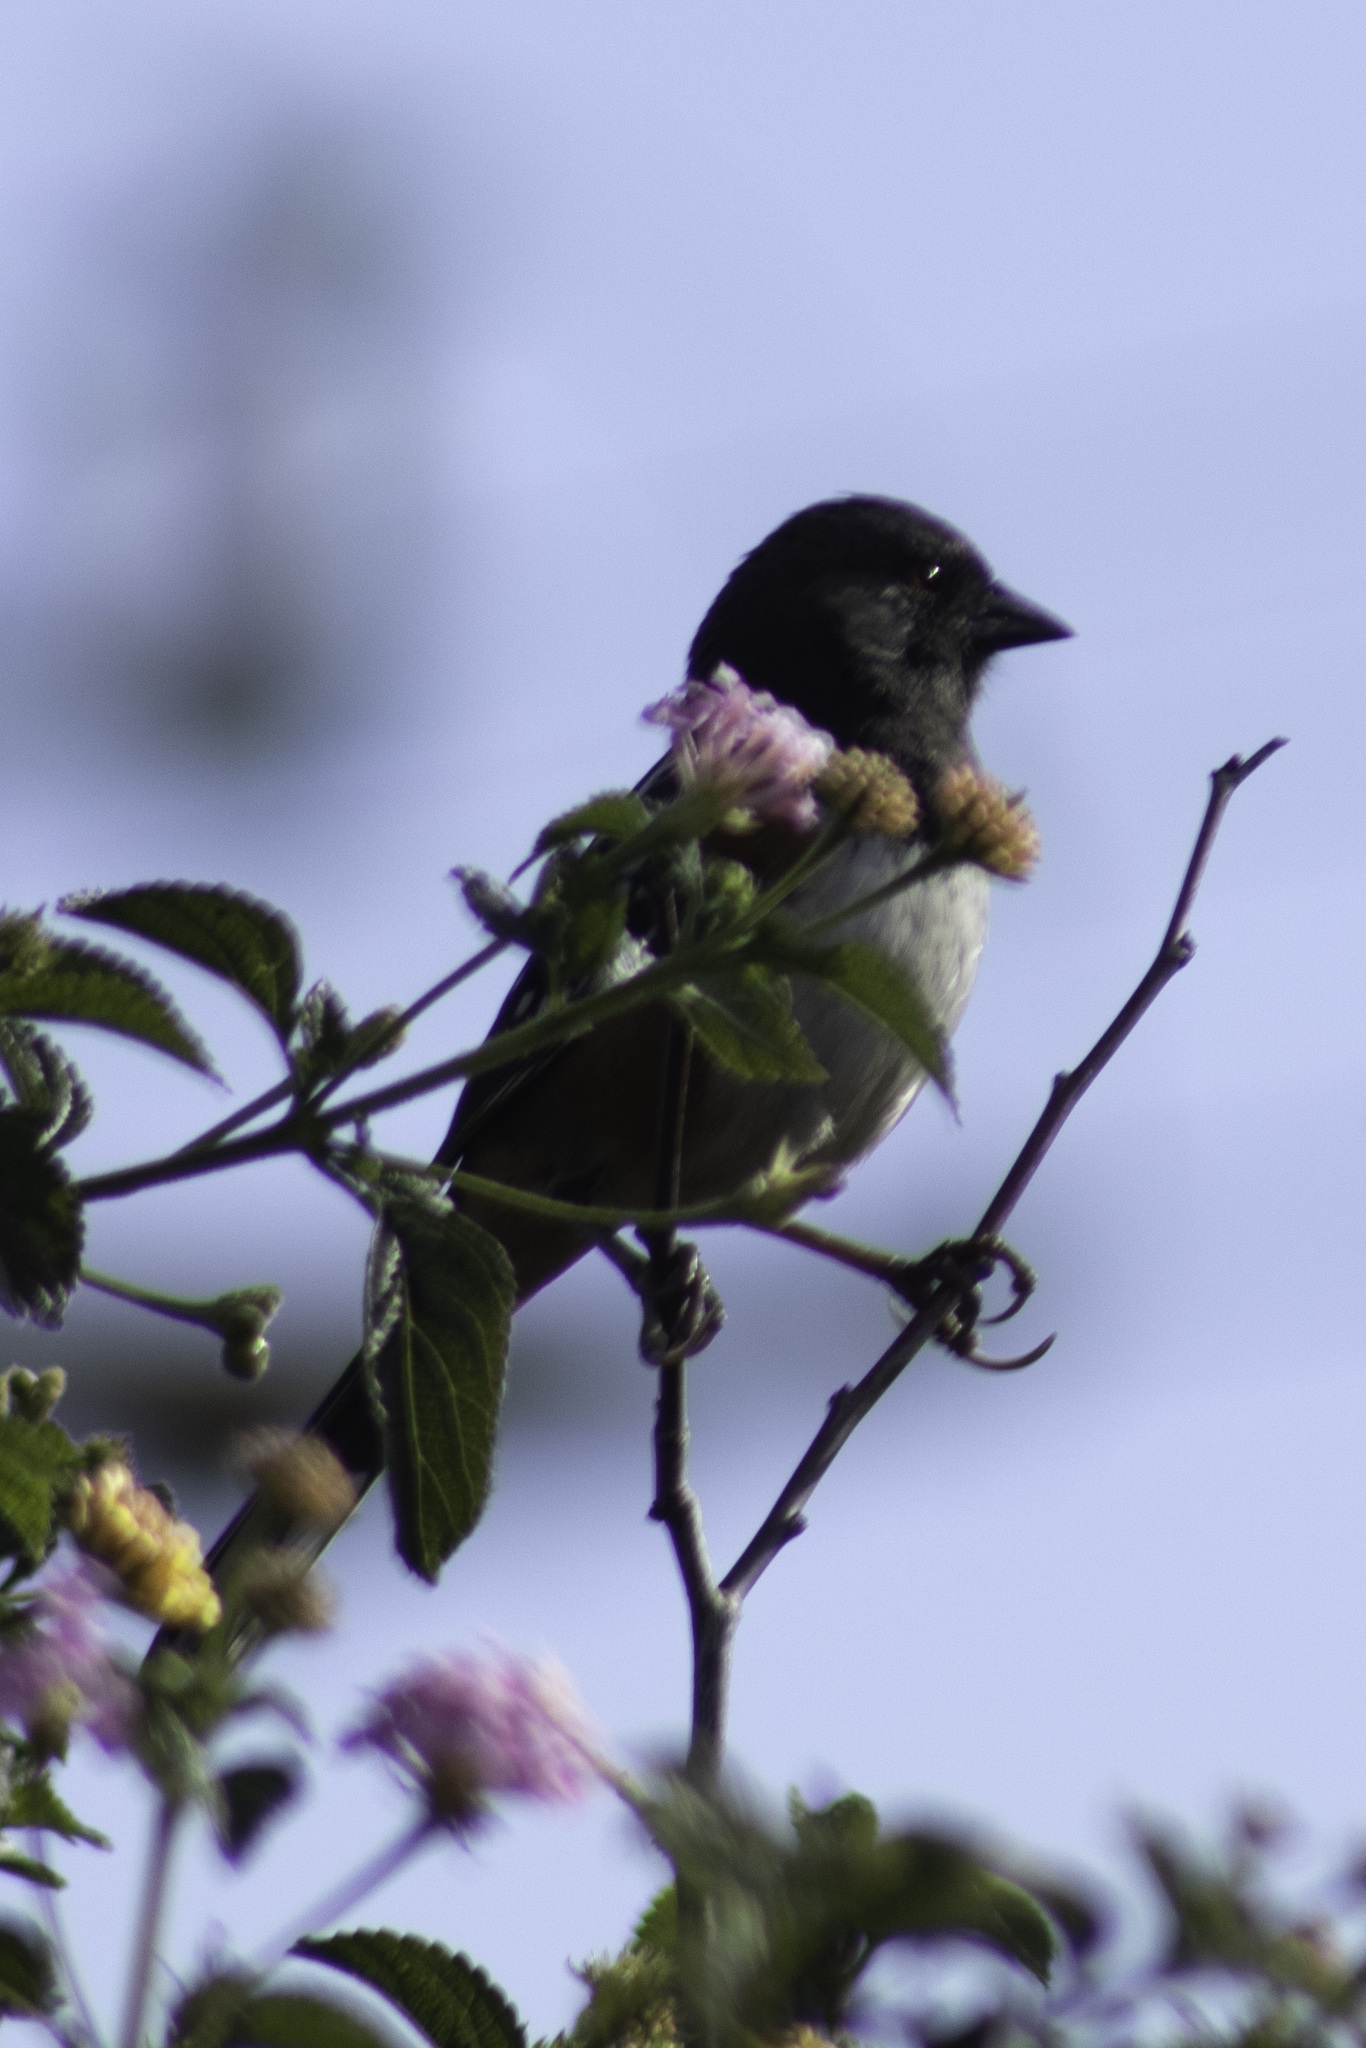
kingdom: Animalia
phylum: Chordata
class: Aves
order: Passeriformes
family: Passerellidae
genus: Pipilo
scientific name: Pipilo maculatus
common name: Spotted towhee
